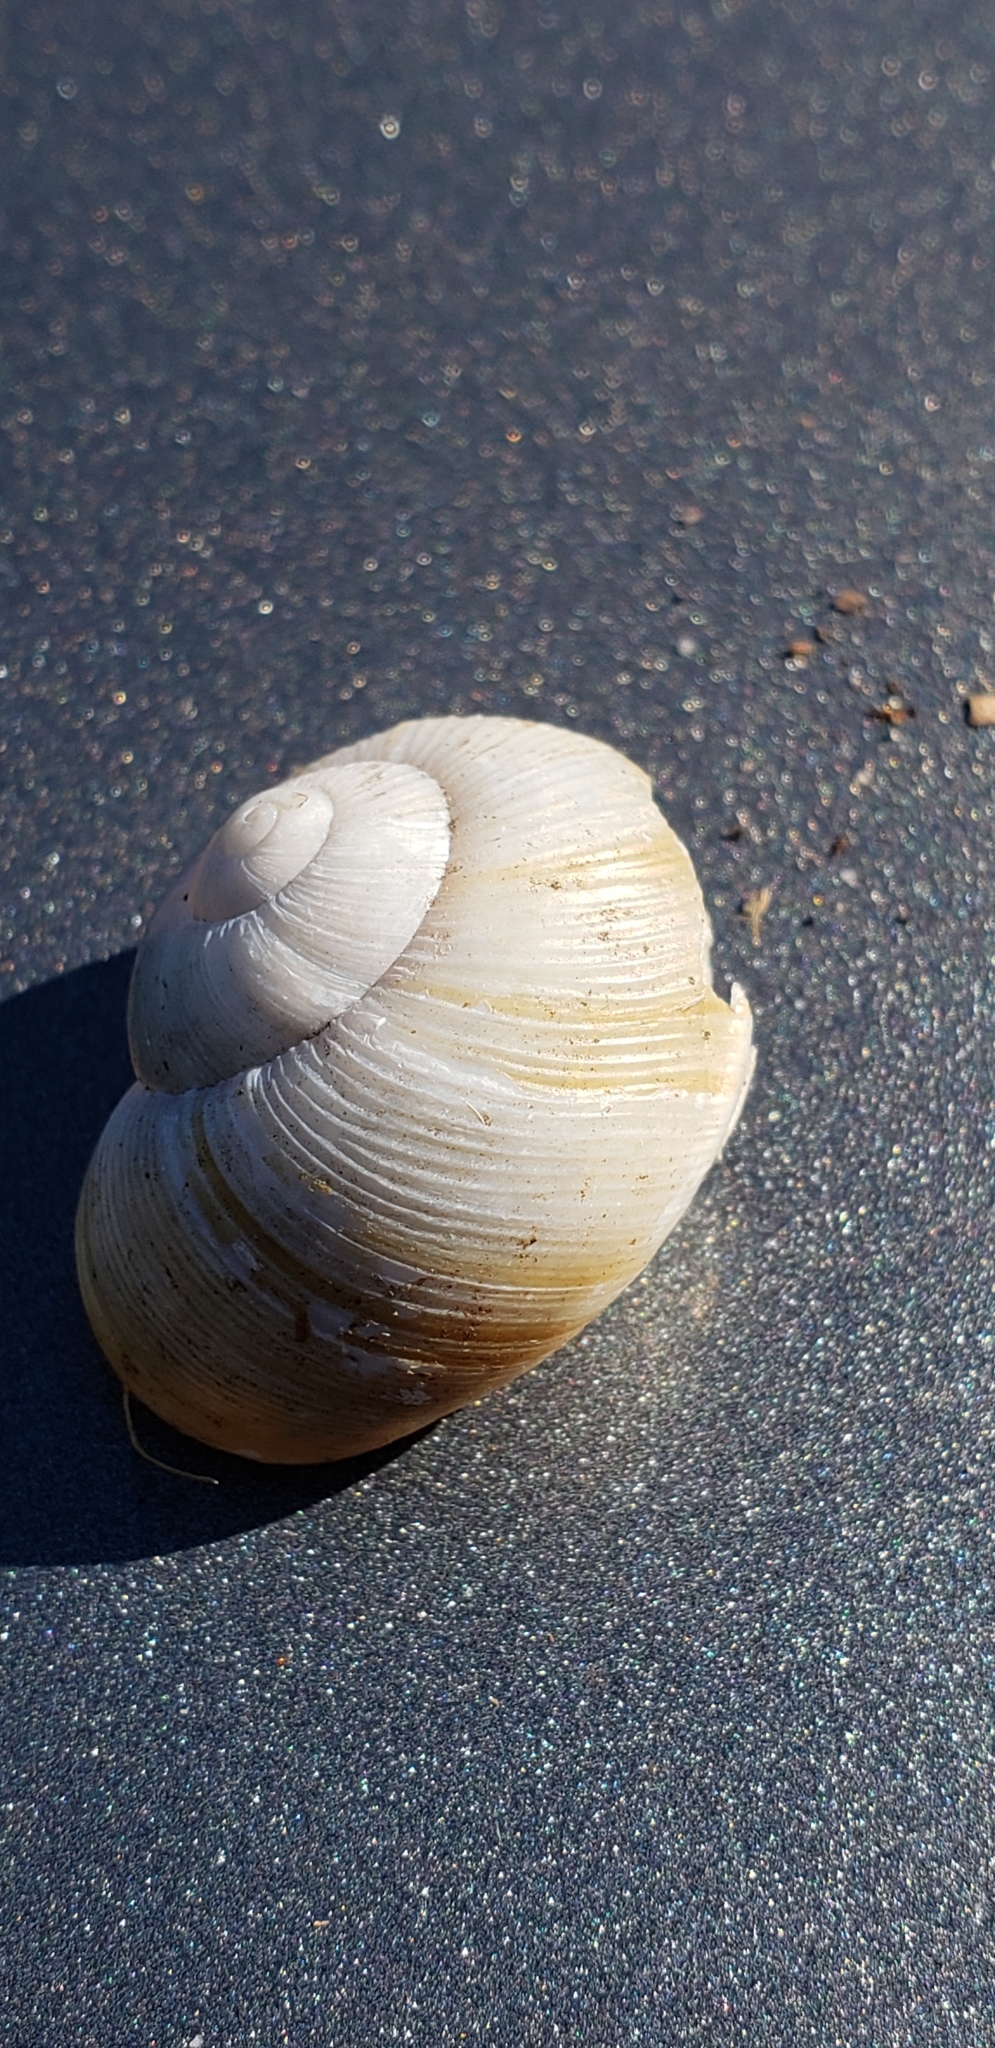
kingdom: Animalia
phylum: Mollusca
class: Gastropoda
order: Stylommatophora
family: Zachrysiidae
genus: Zachrysia
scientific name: Zachrysia provisoria
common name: Garden zachrysia
